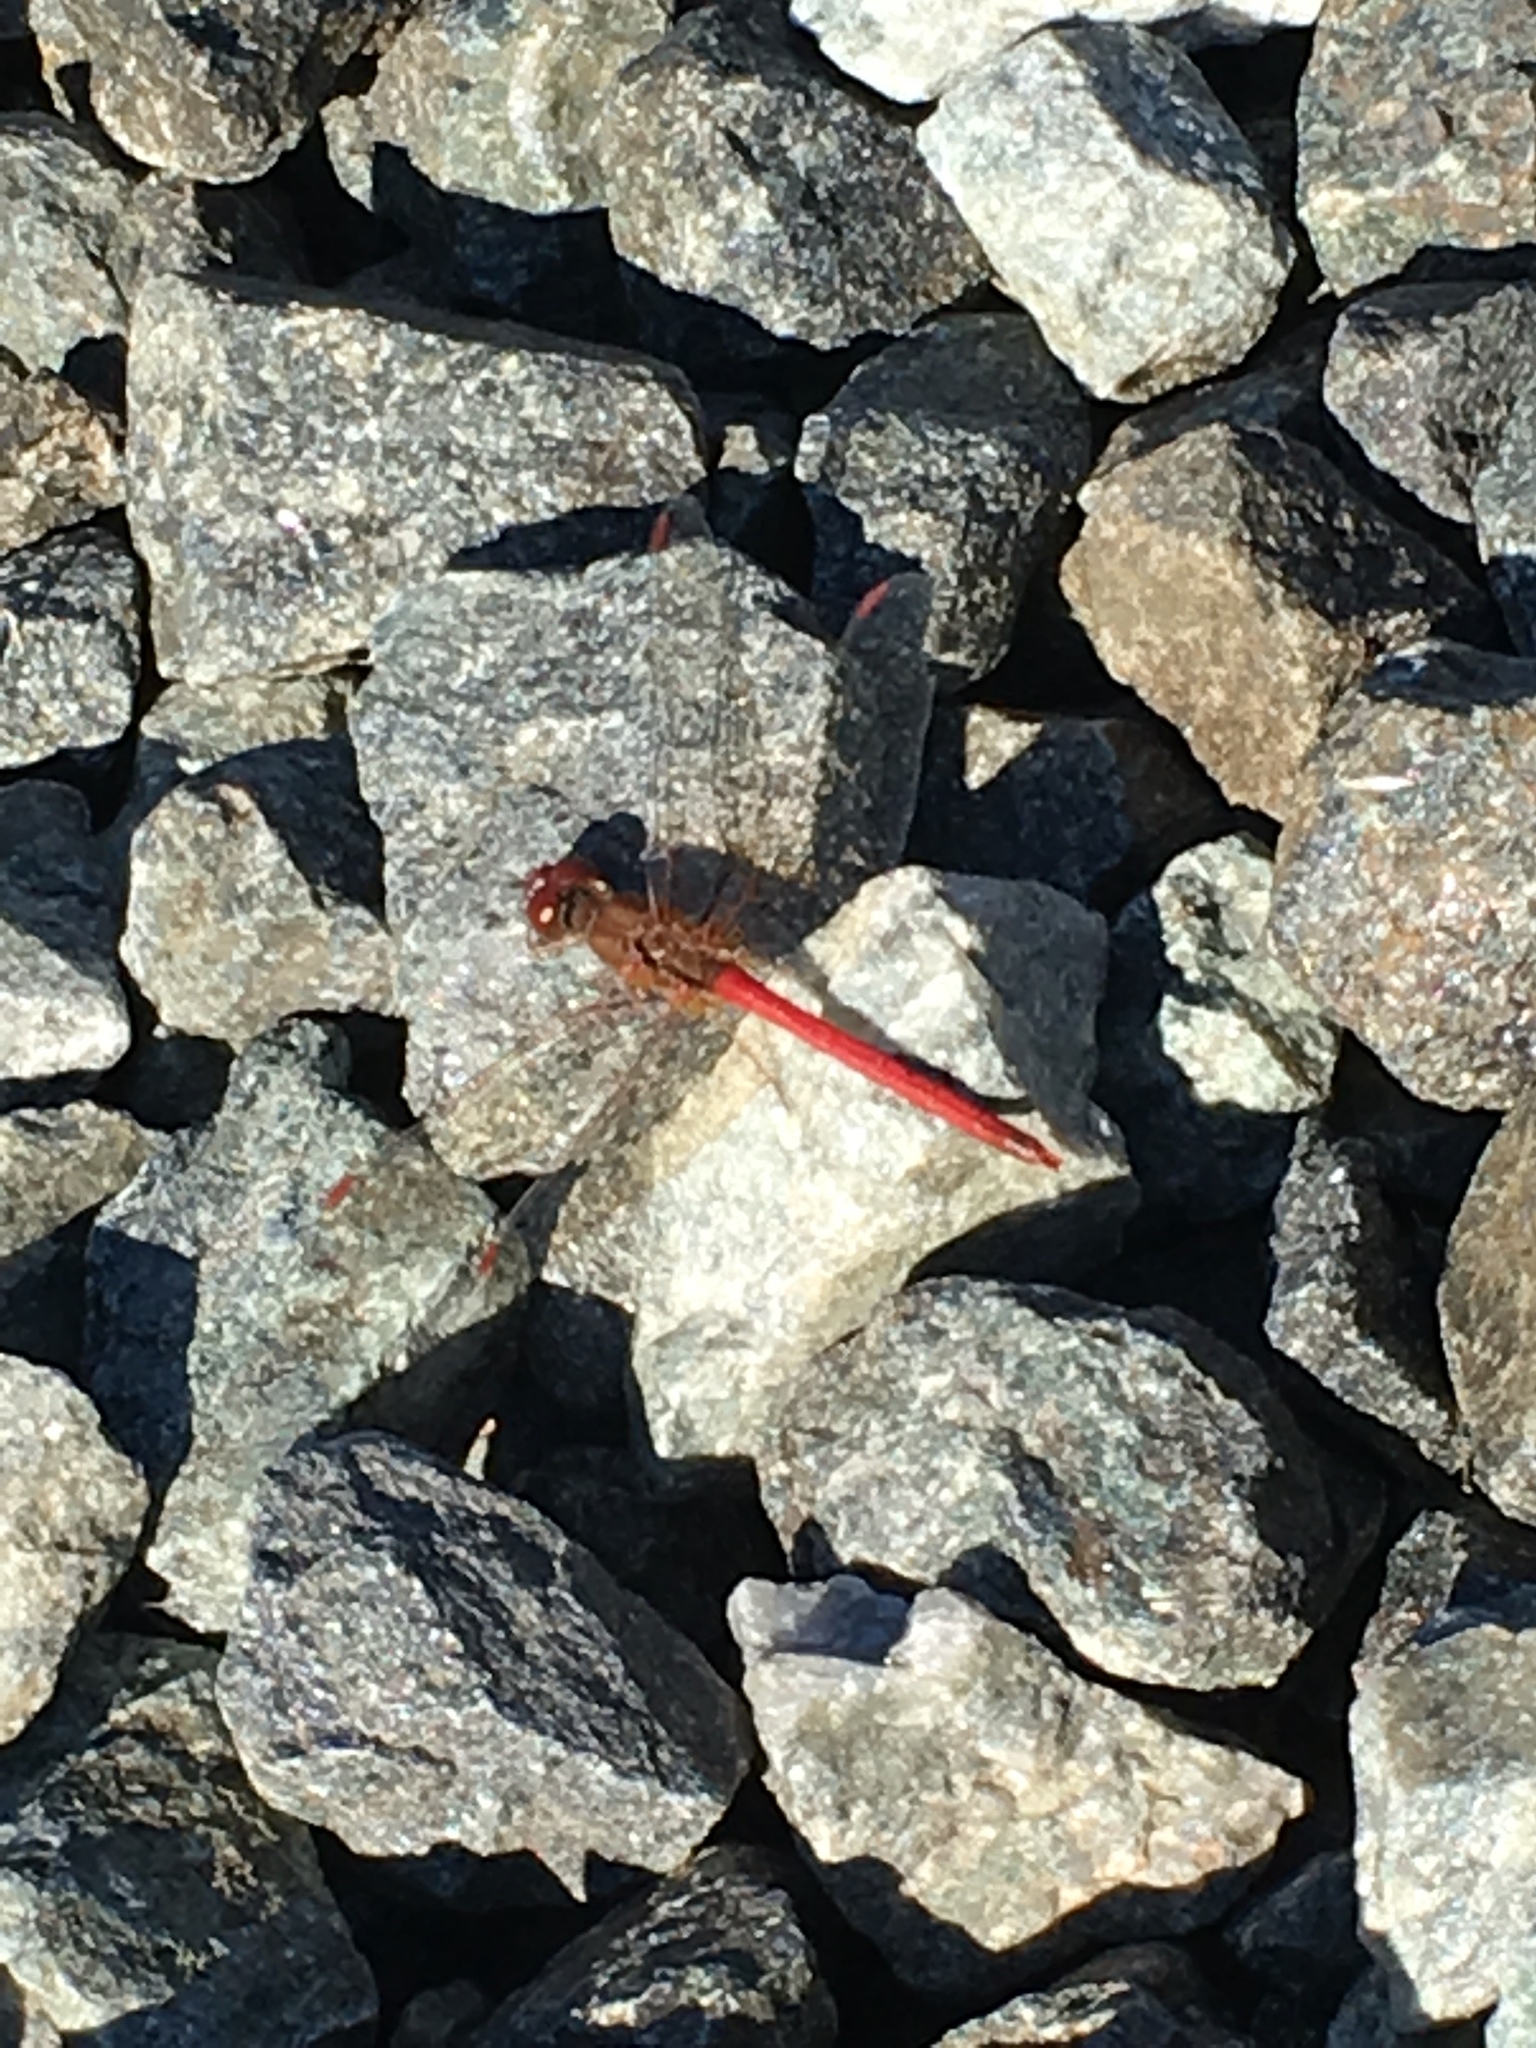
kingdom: Animalia
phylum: Arthropoda
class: Insecta
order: Odonata
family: Libellulidae
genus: Sympetrum
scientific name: Sympetrum vicinum
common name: Autumn meadowhawk
